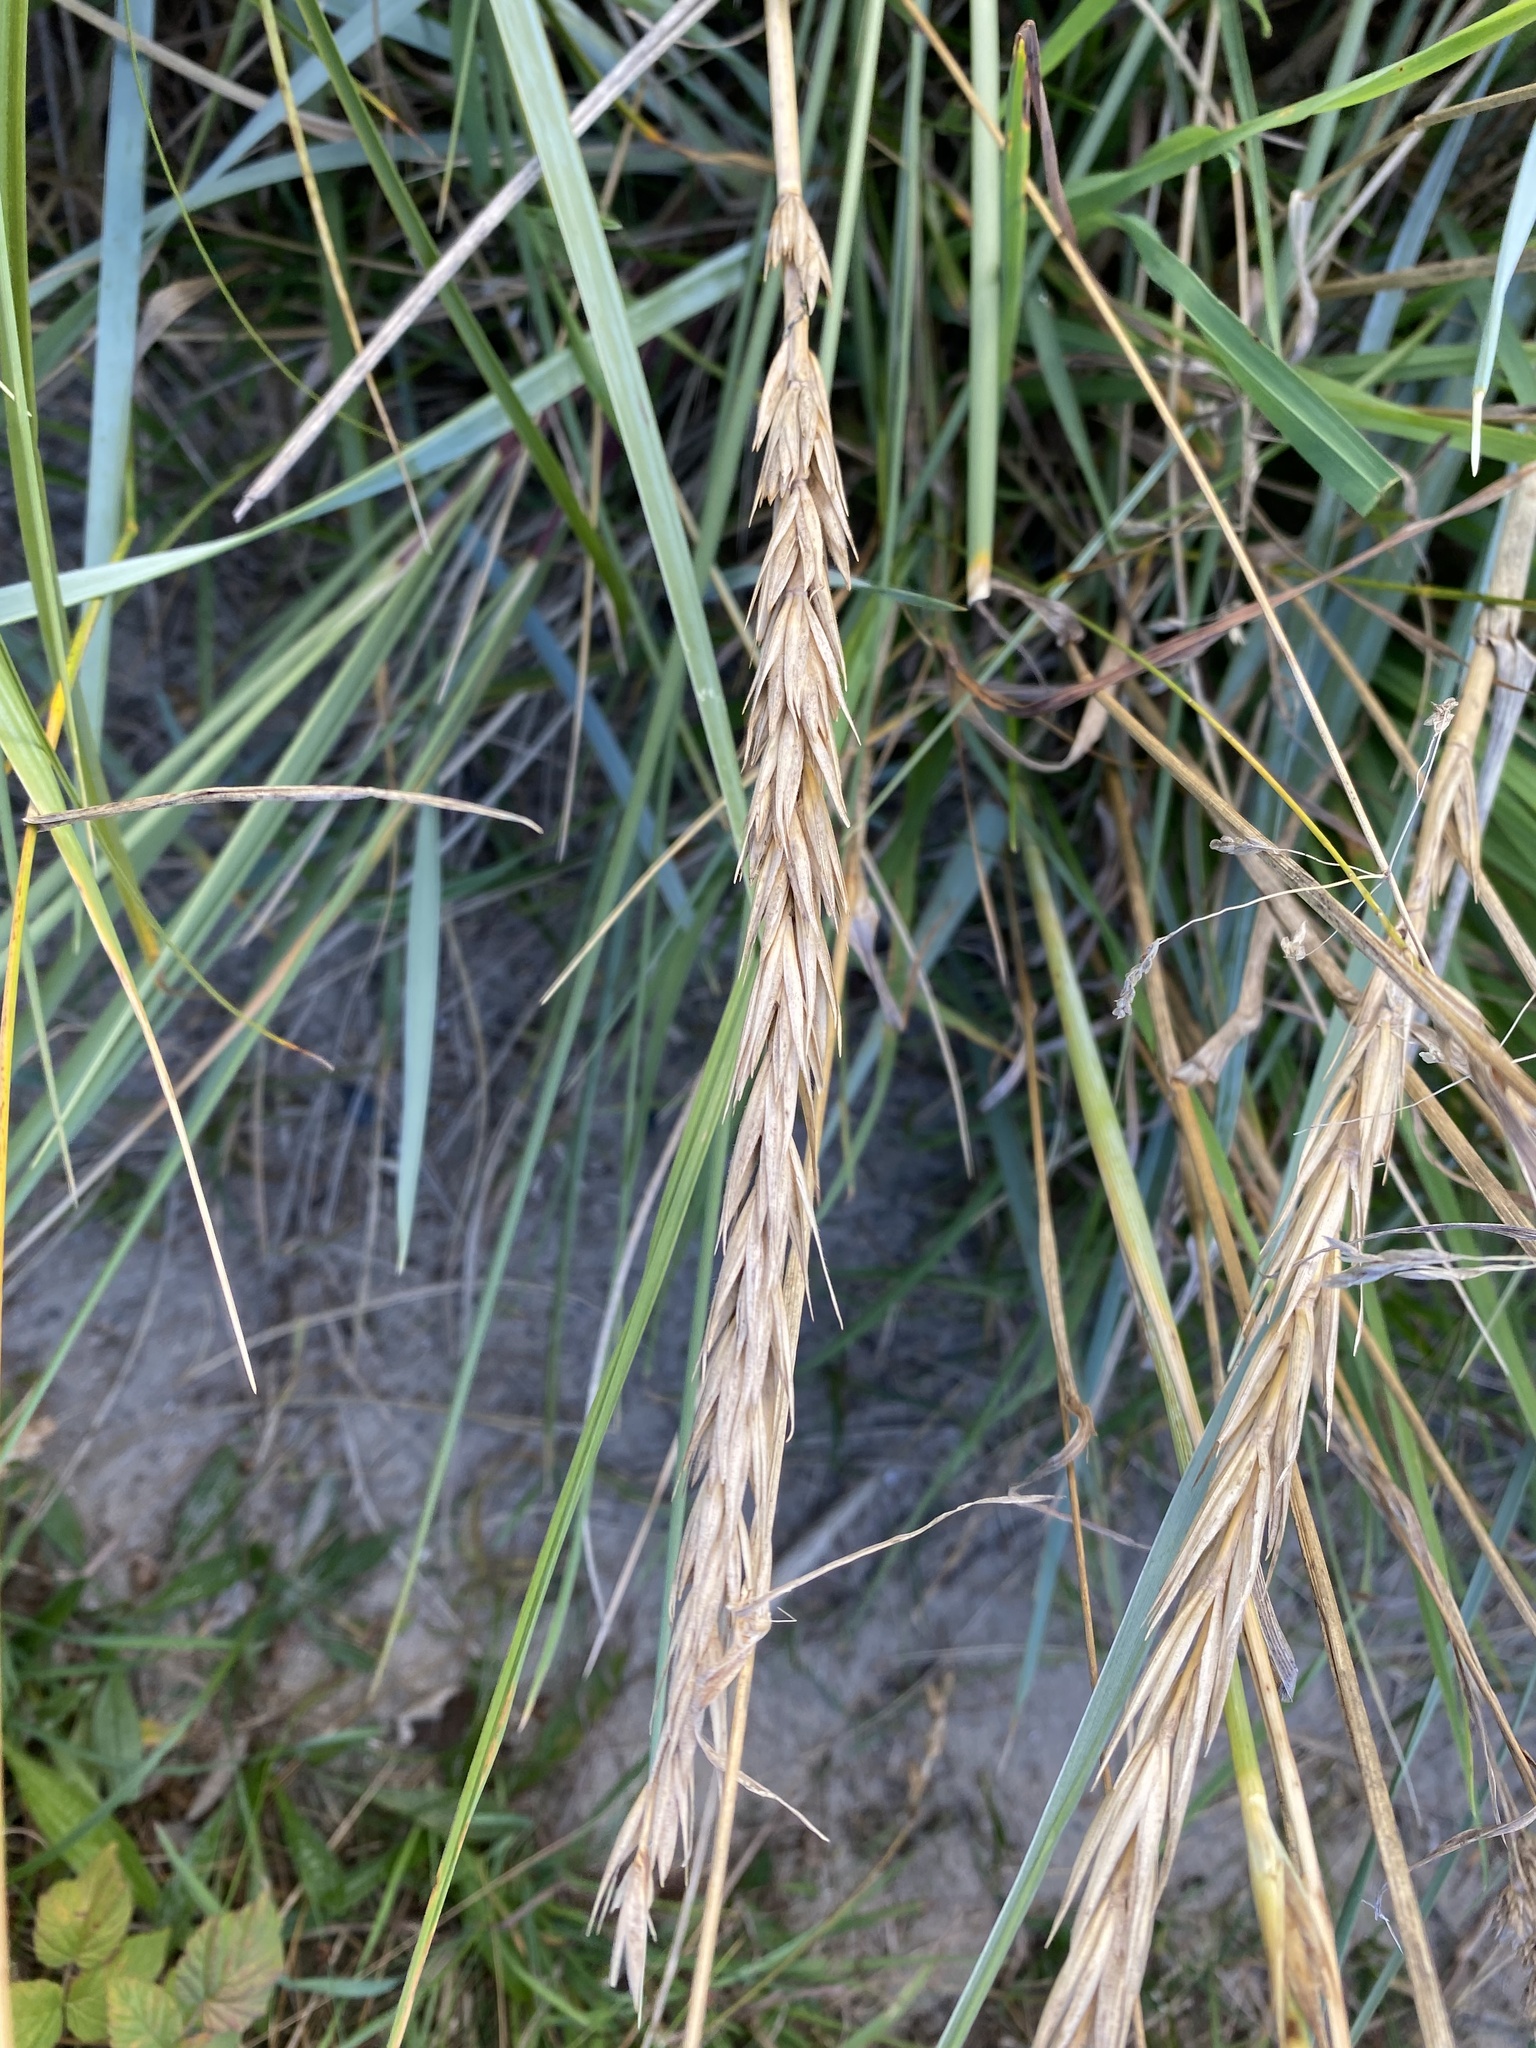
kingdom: Plantae
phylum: Tracheophyta
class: Liliopsida
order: Poales
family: Poaceae
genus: Leymus
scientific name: Leymus arenarius
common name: Lyme-grass
